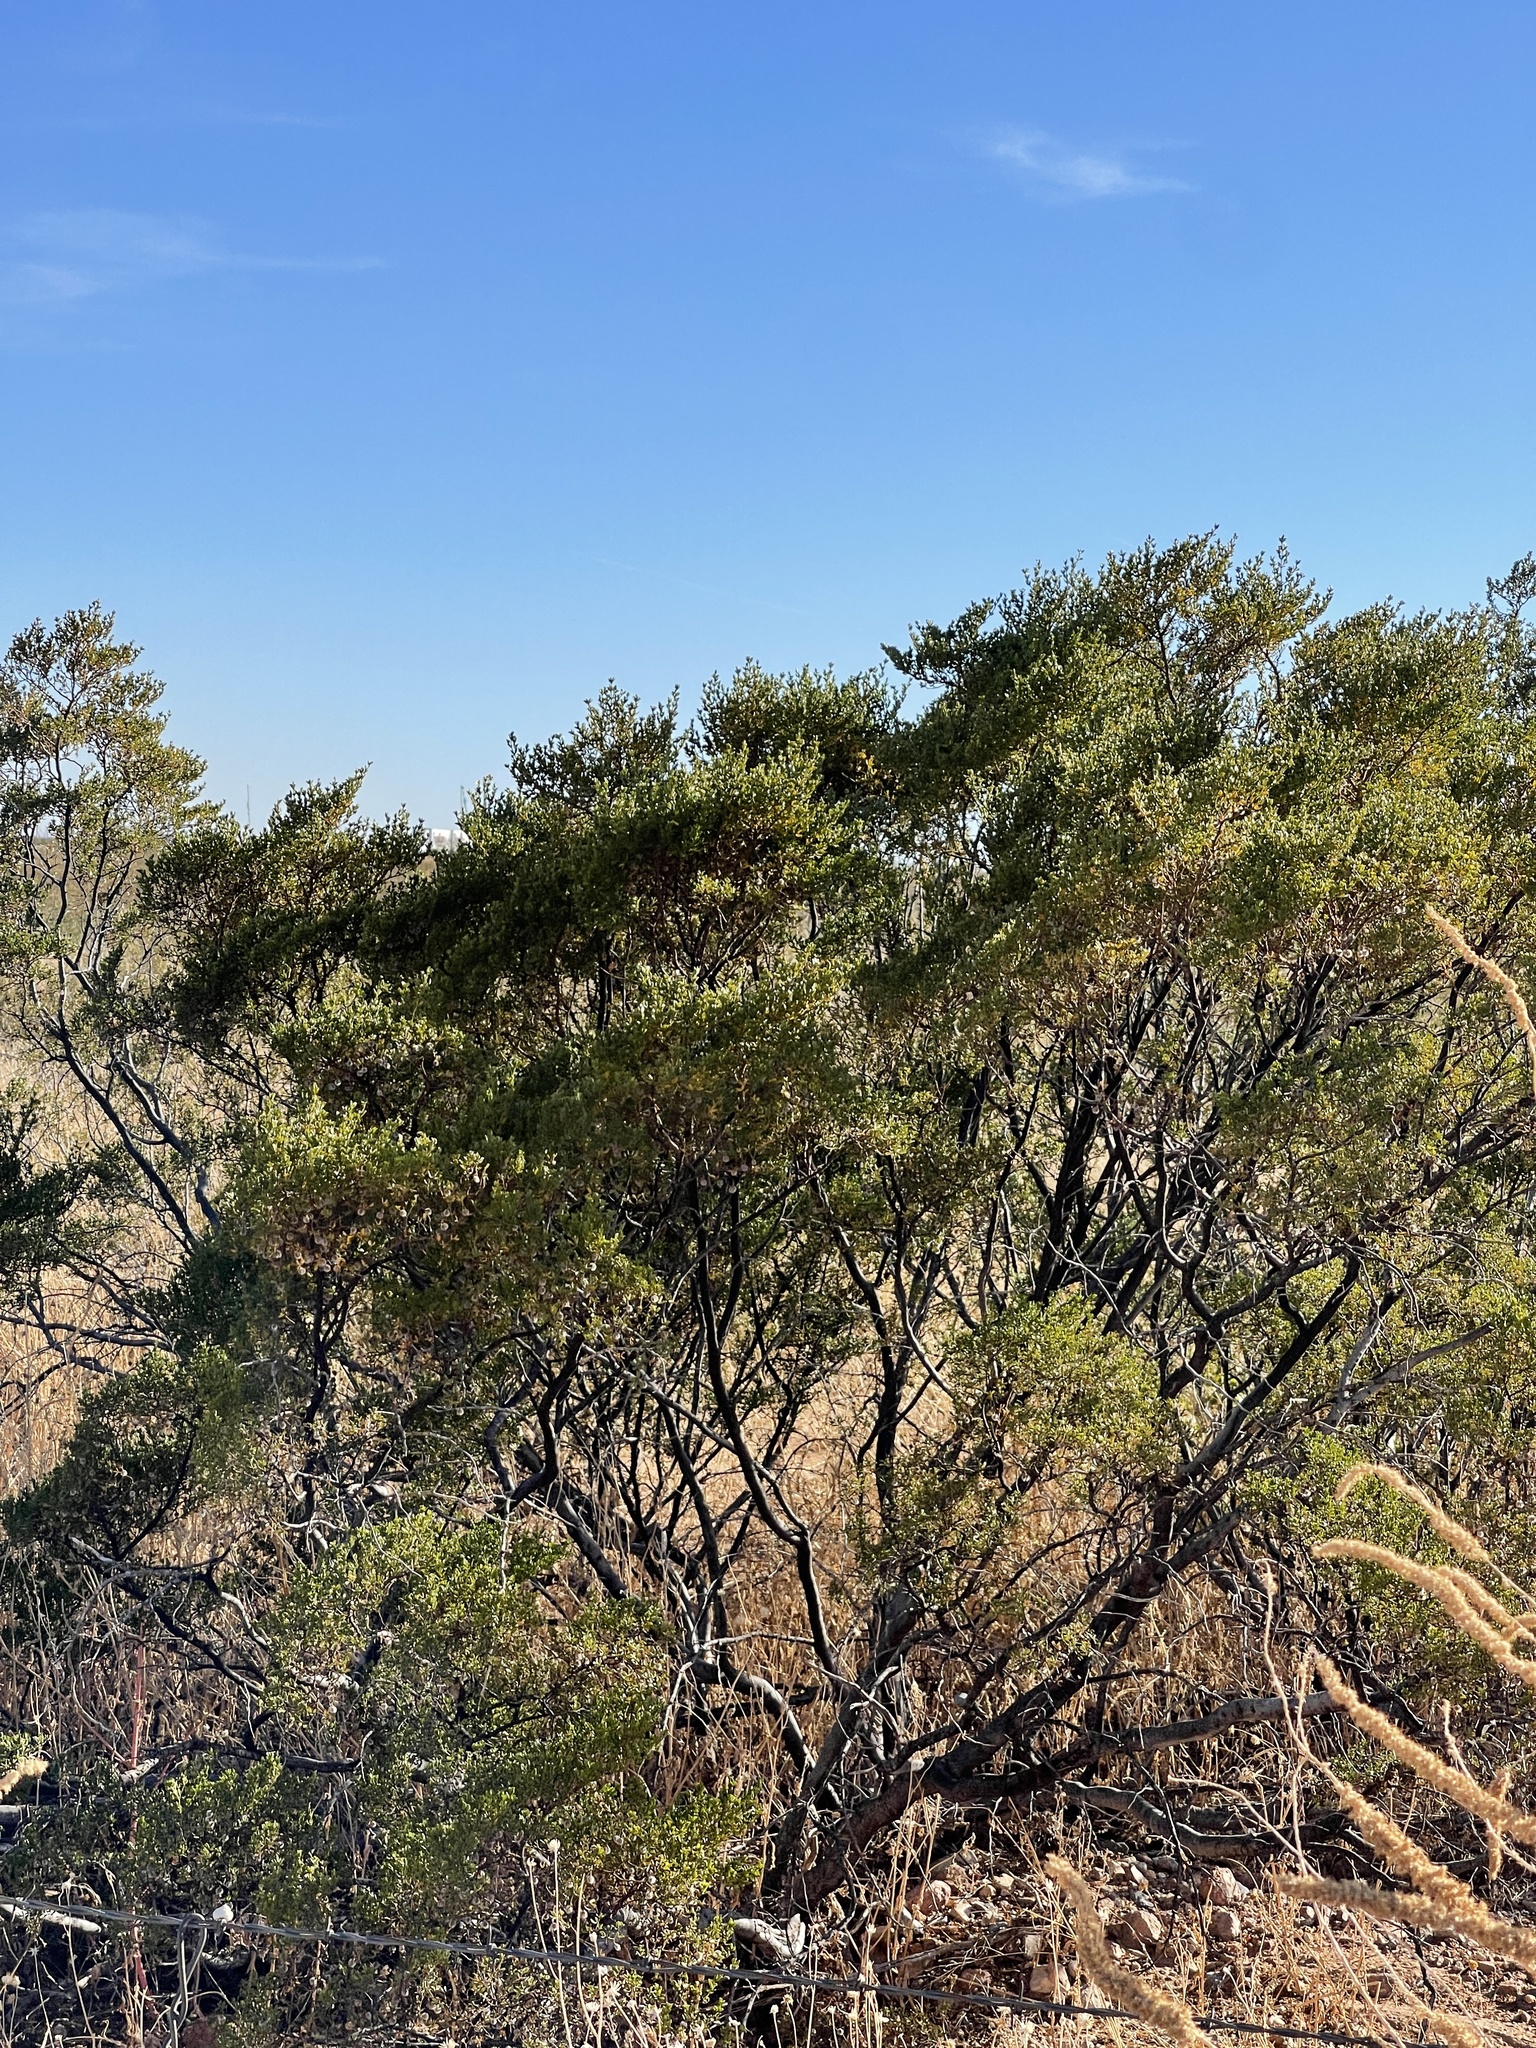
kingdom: Plantae
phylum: Tracheophyta
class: Magnoliopsida
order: Zygophyllales
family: Zygophyllaceae
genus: Larrea
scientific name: Larrea tridentata
